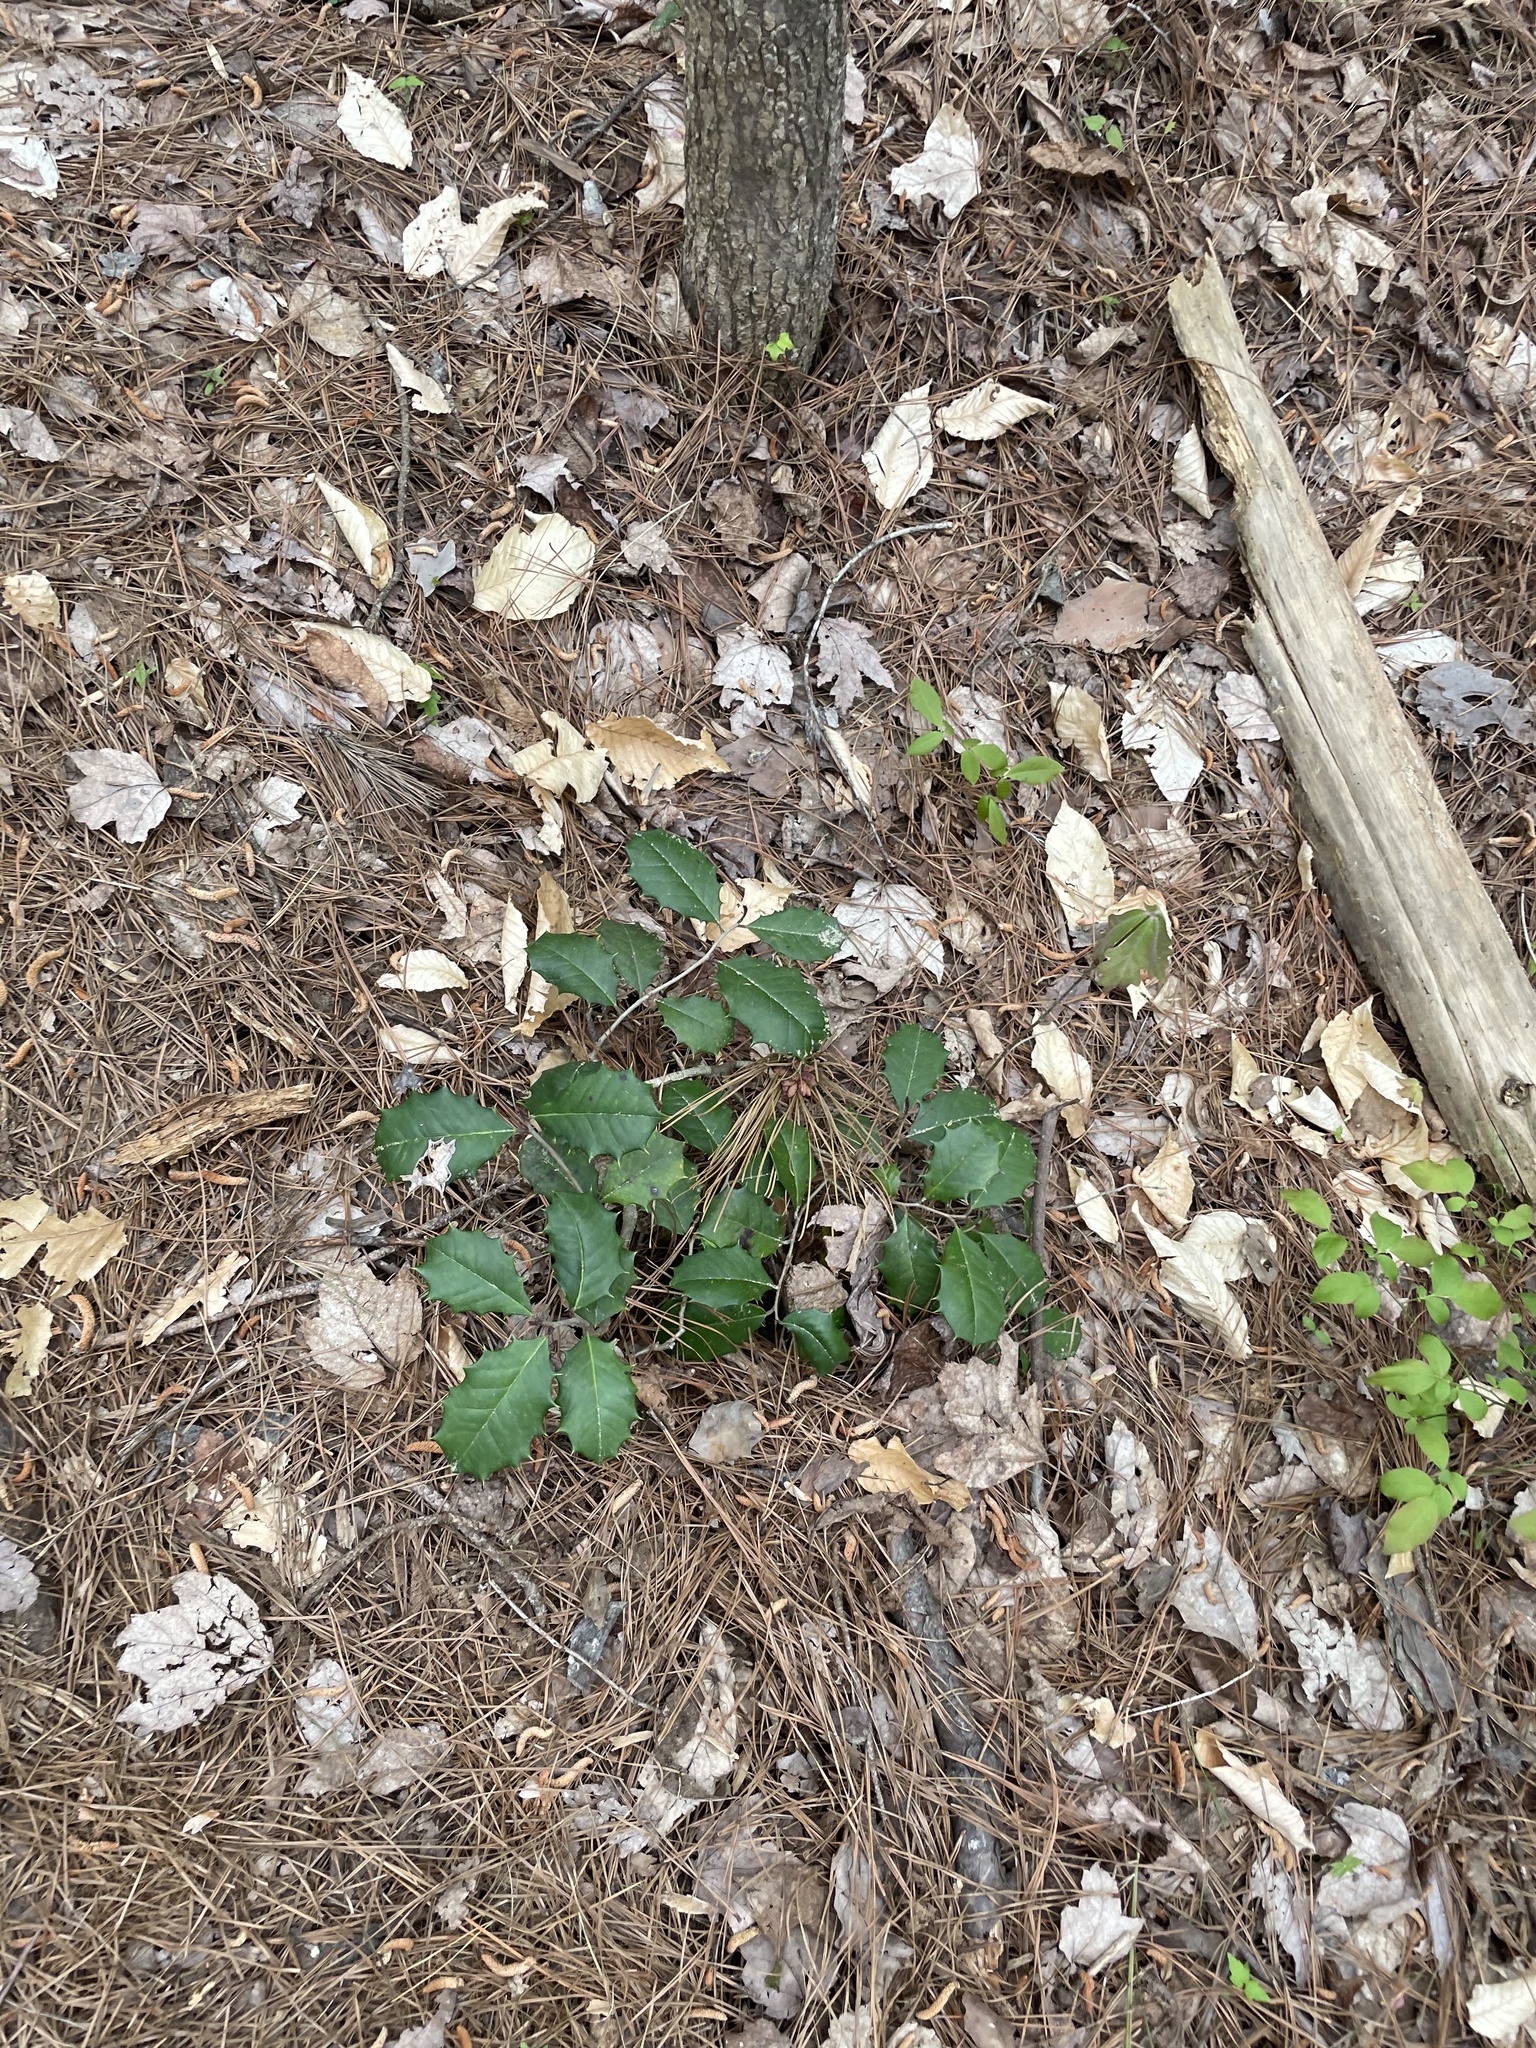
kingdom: Plantae
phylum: Tracheophyta
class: Magnoliopsida
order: Aquifoliales
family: Aquifoliaceae
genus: Ilex
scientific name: Ilex opaca
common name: American holly
